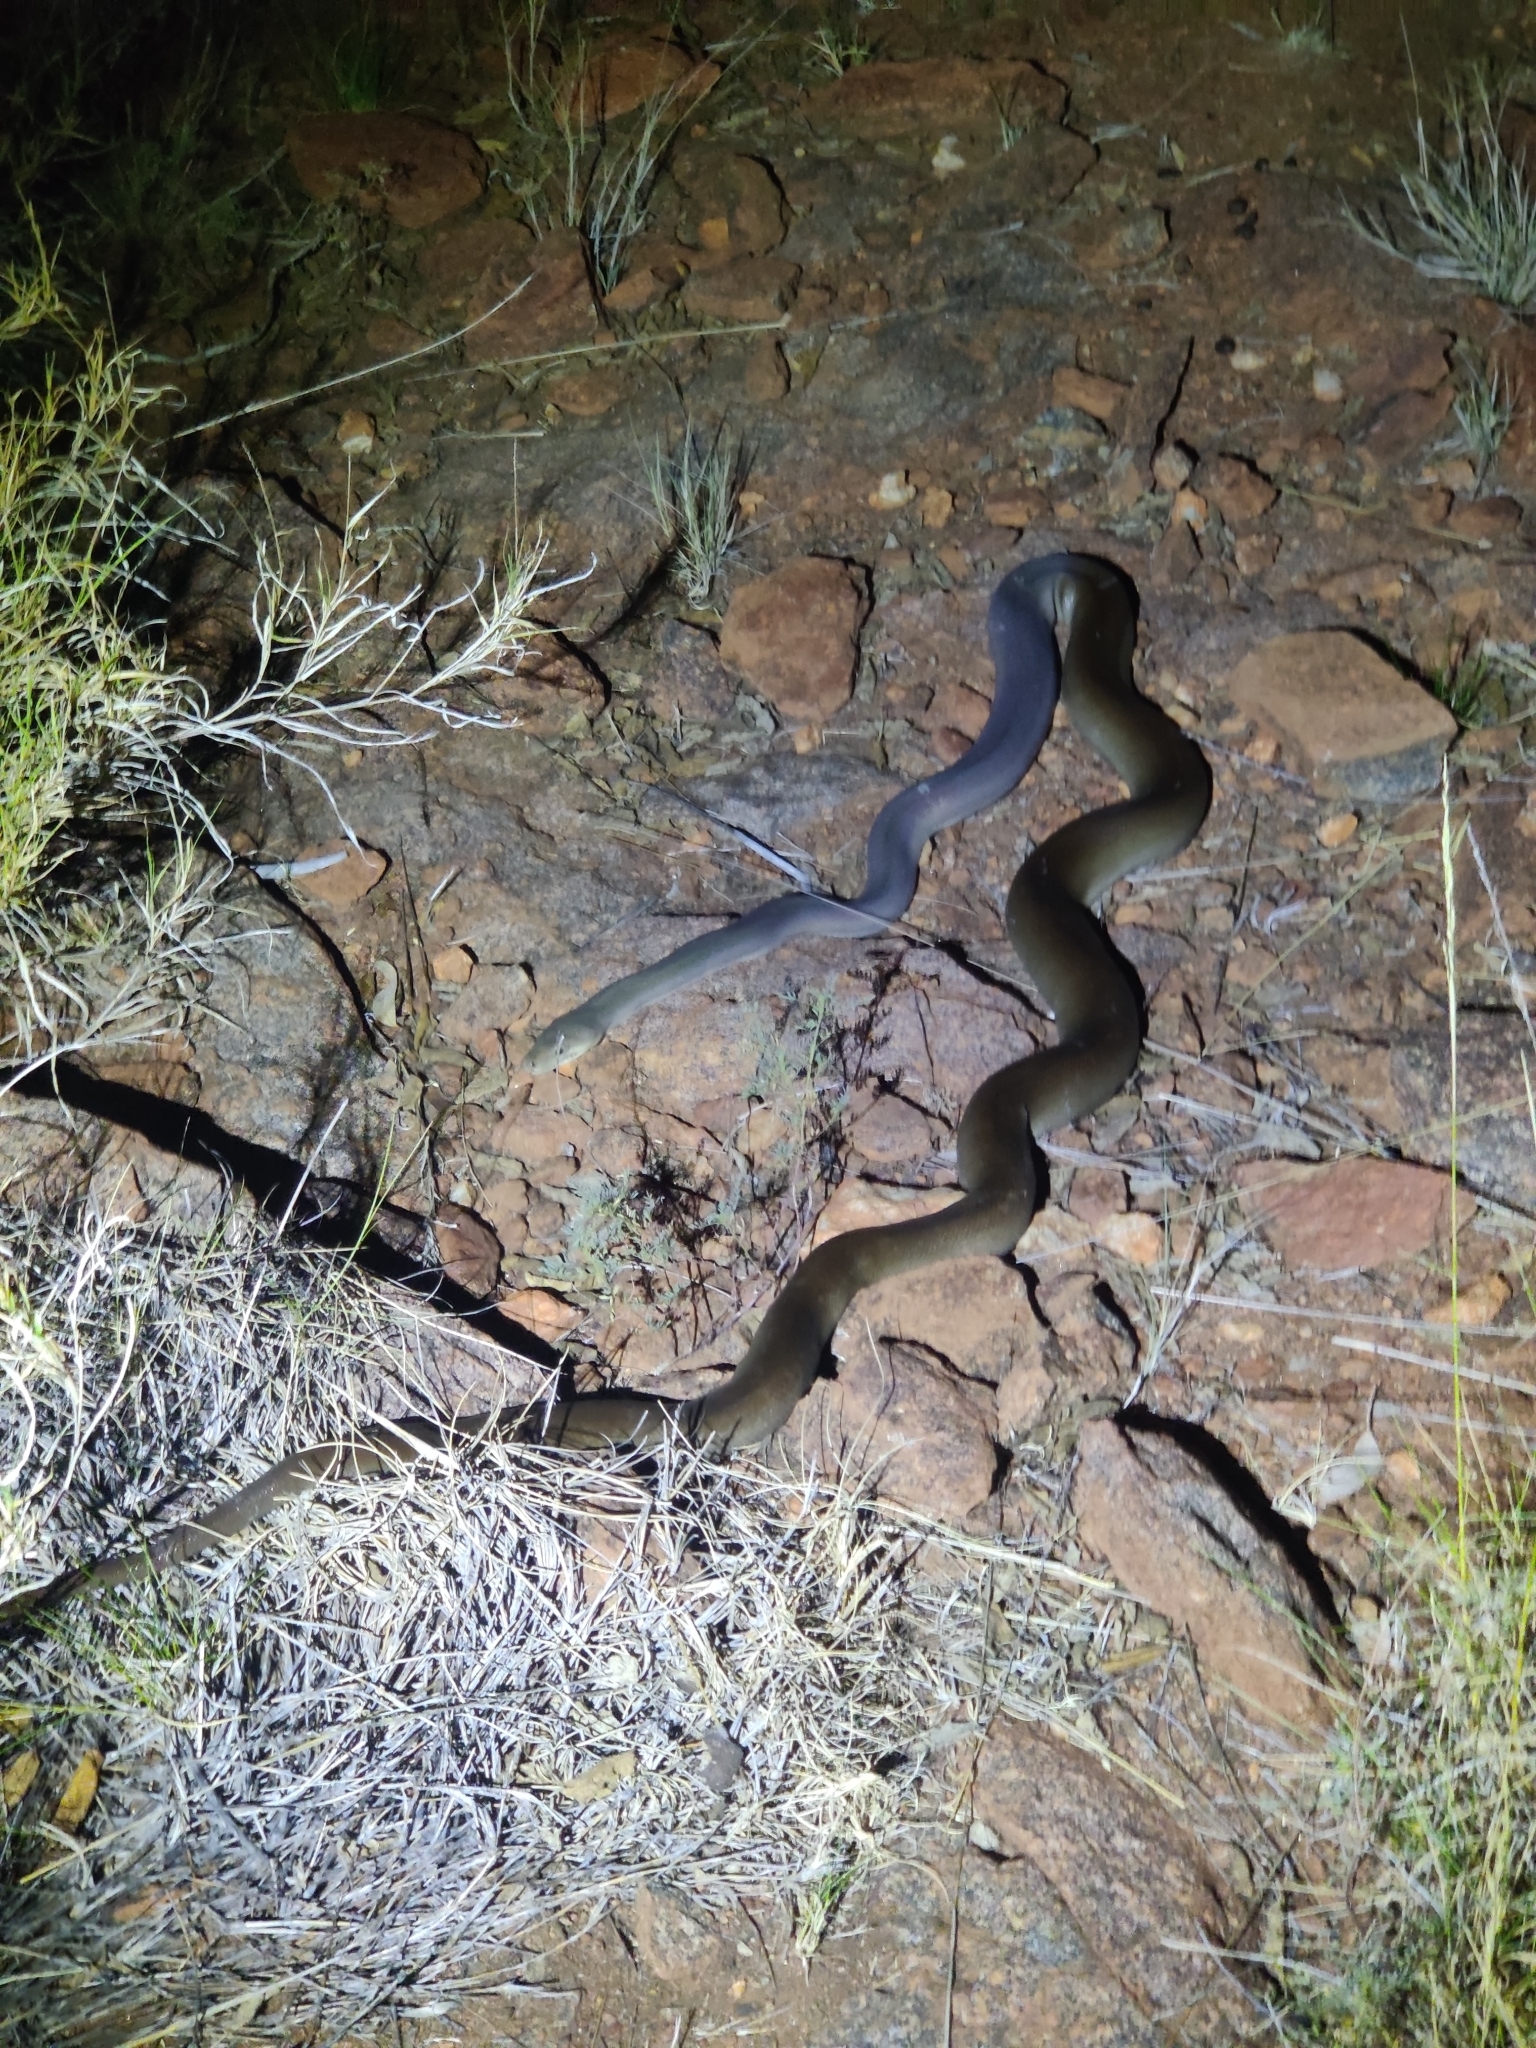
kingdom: Animalia
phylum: Chordata
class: Squamata
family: Pythonidae
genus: Liasis
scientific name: Liasis olivaceus
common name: Olive python
